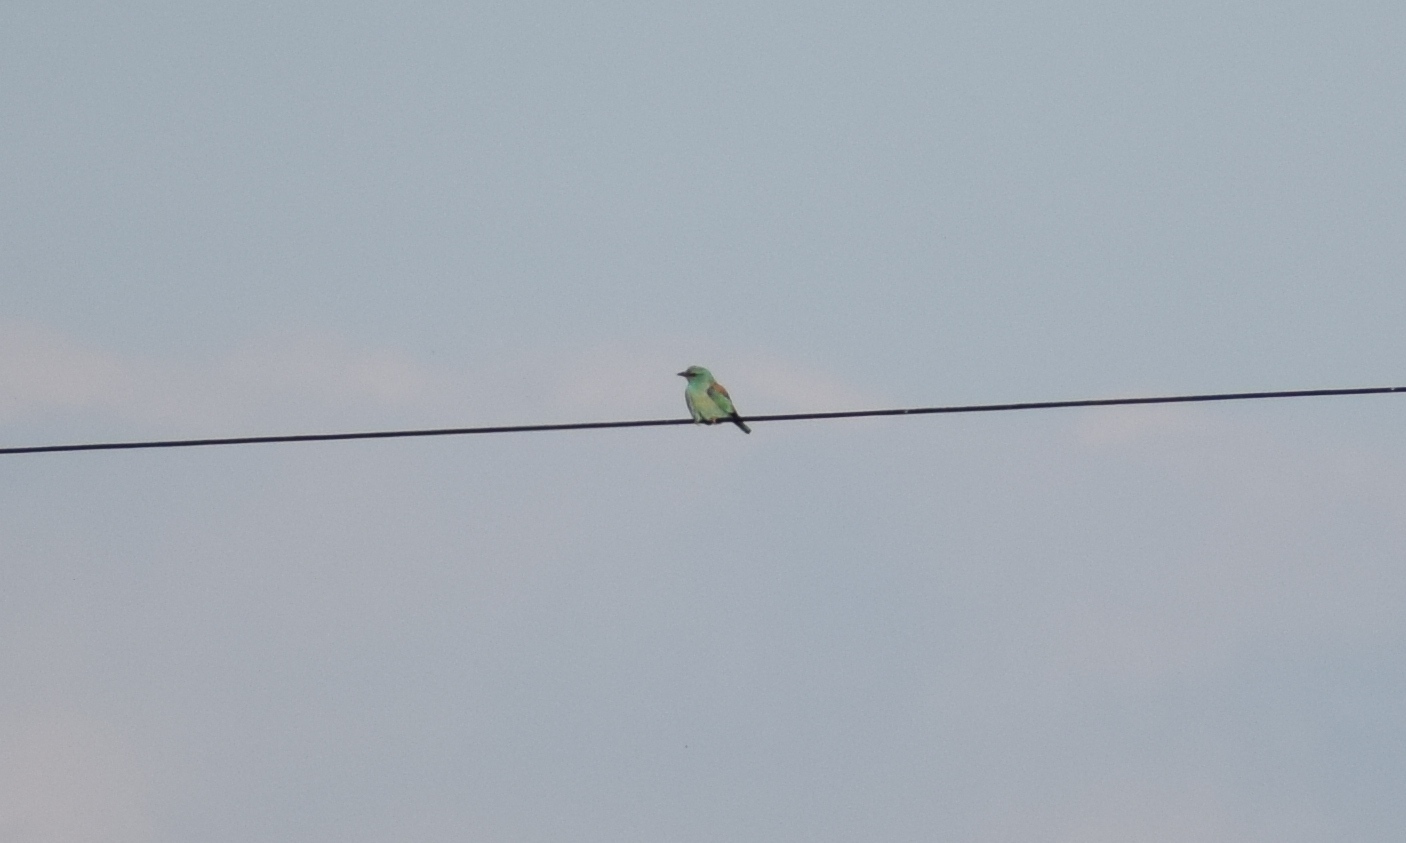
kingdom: Animalia
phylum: Chordata
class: Aves
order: Coraciiformes
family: Coraciidae
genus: Coracias
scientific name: Coracias garrulus
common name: European roller
